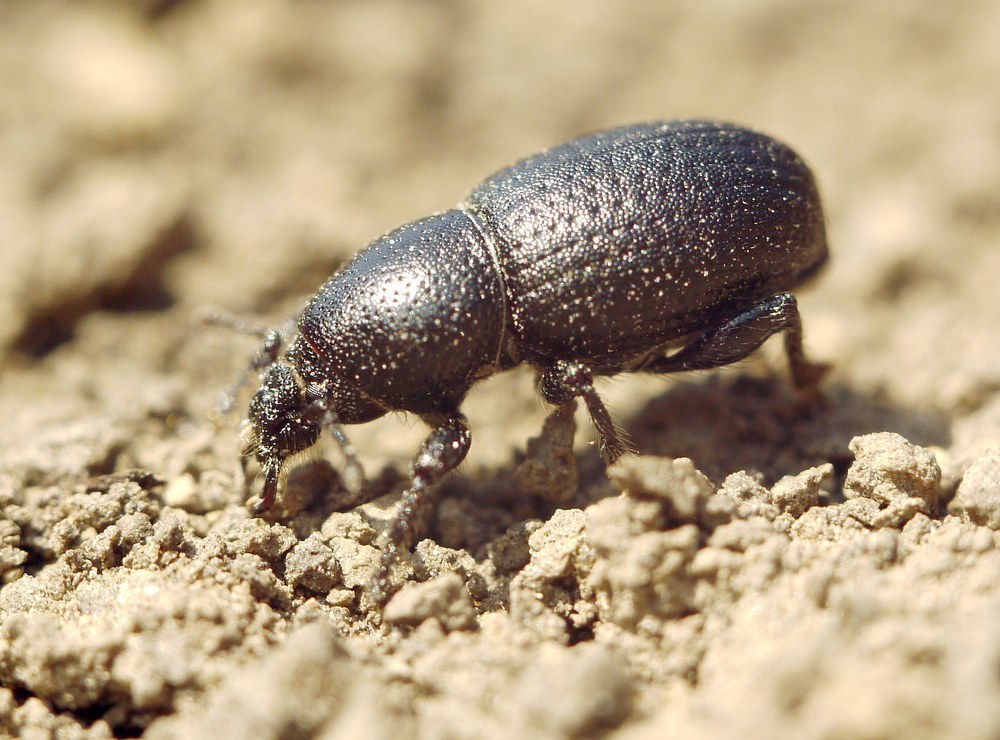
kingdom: Animalia
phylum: Arthropoda
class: Insecta
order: Coleoptera
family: Curculionidae
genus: Psallidium
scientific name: Psallidium maxillosum
